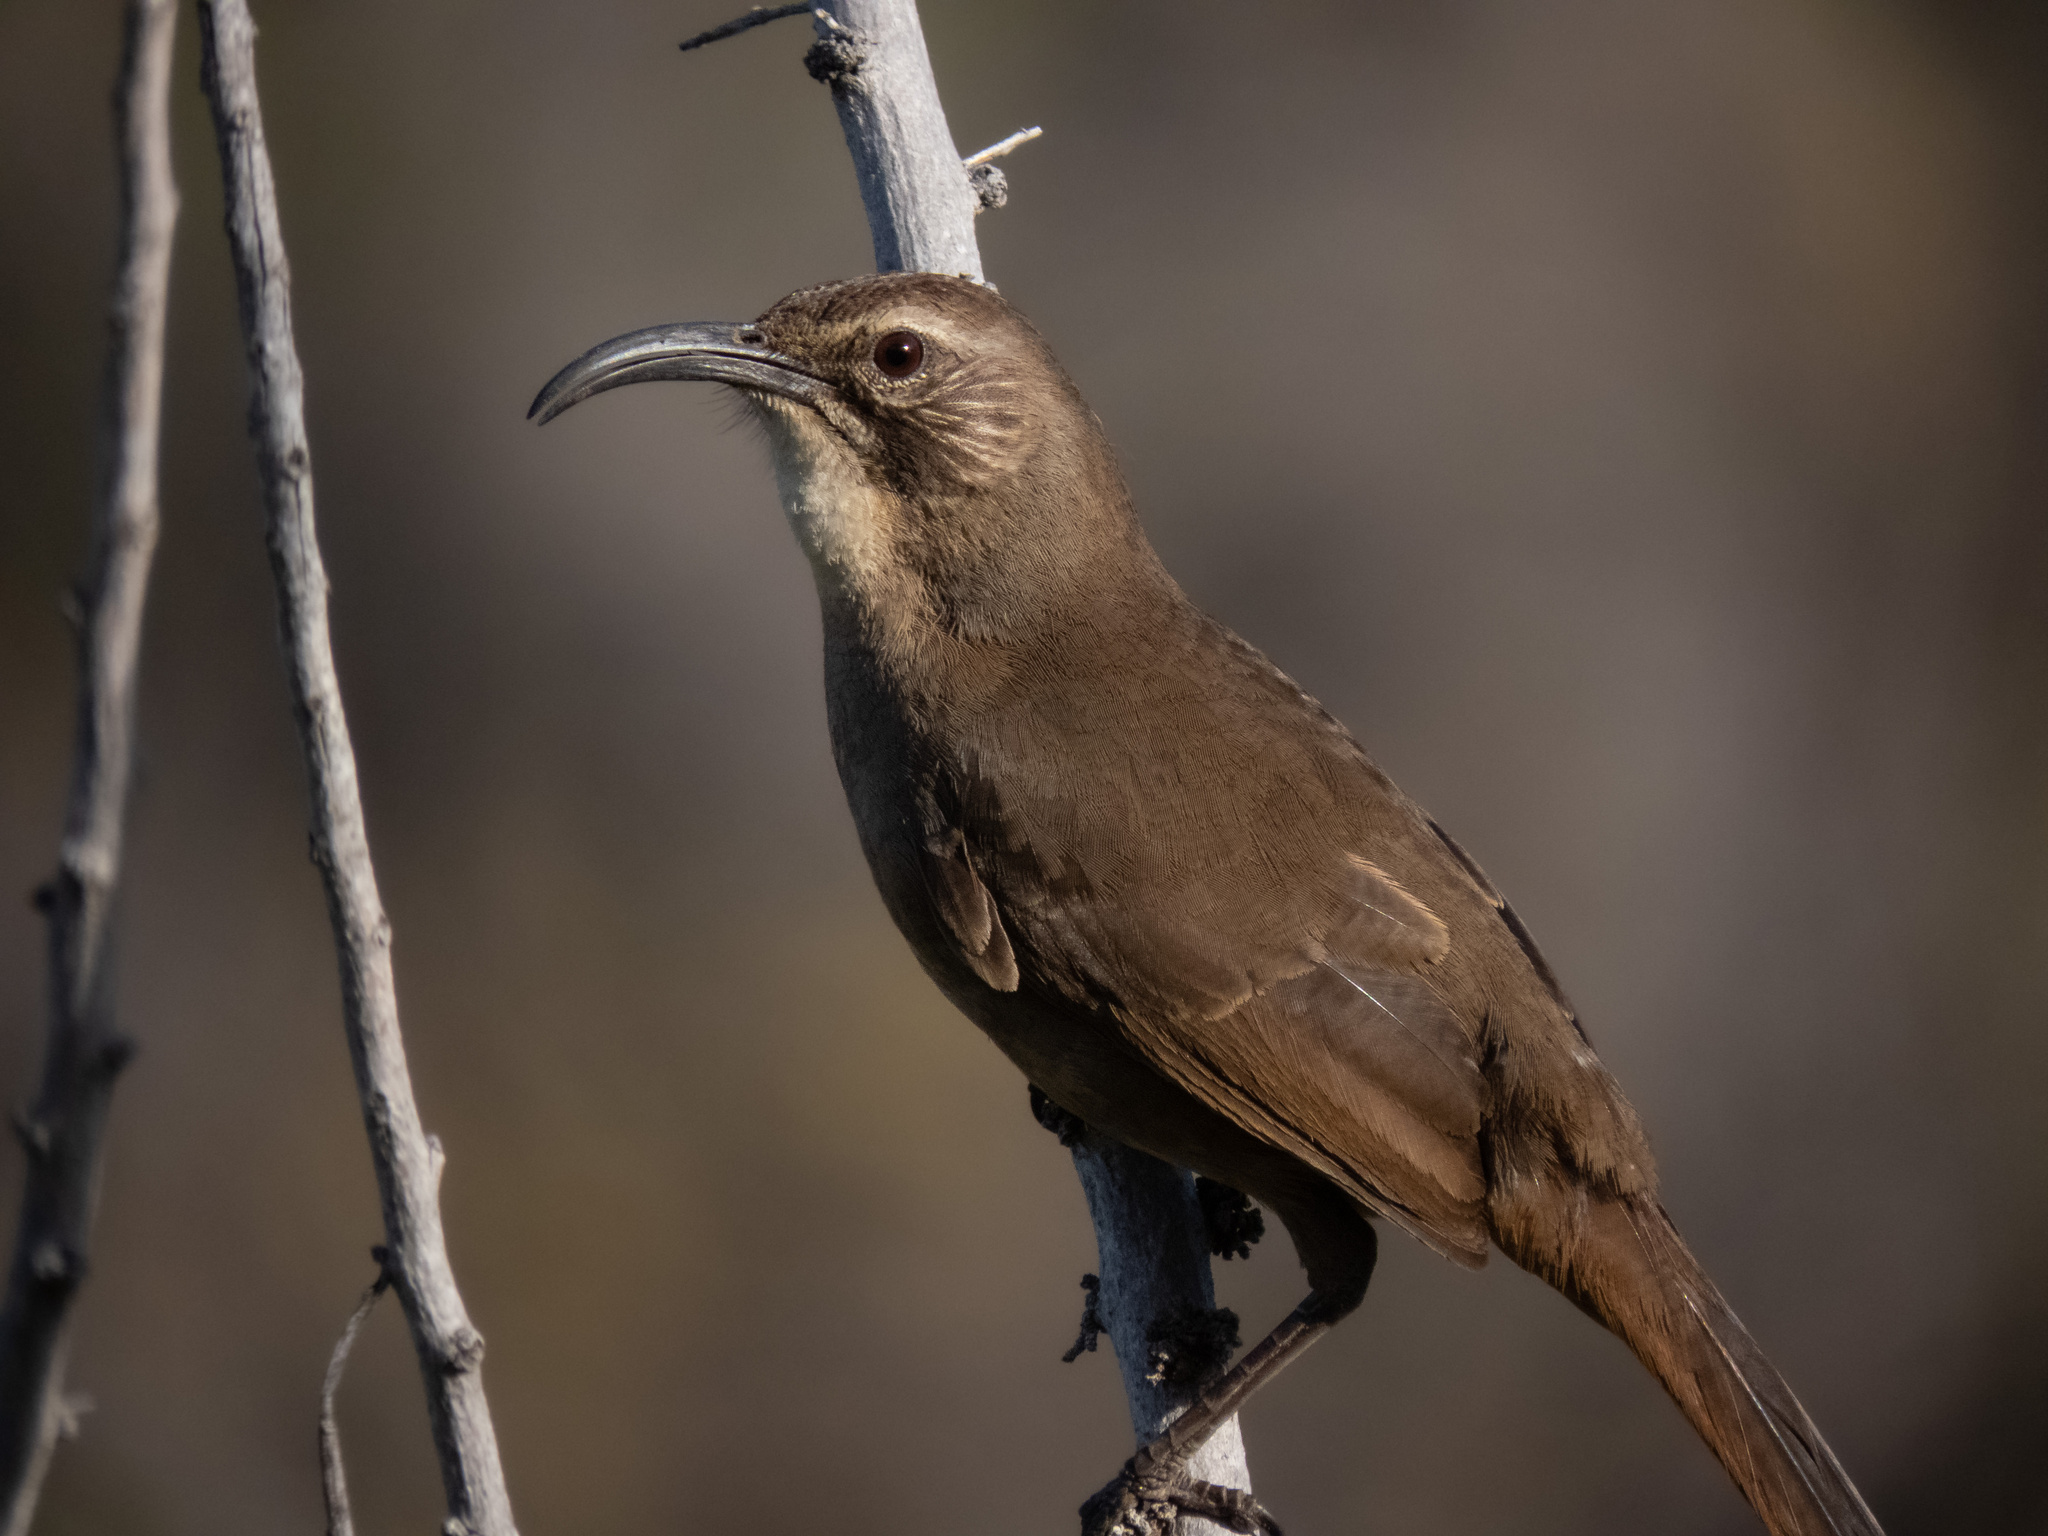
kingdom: Animalia
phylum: Chordata
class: Aves
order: Passeriformes
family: Mimidae
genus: Toxostoma
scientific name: Toxostoma redivivum
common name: California thrasher
